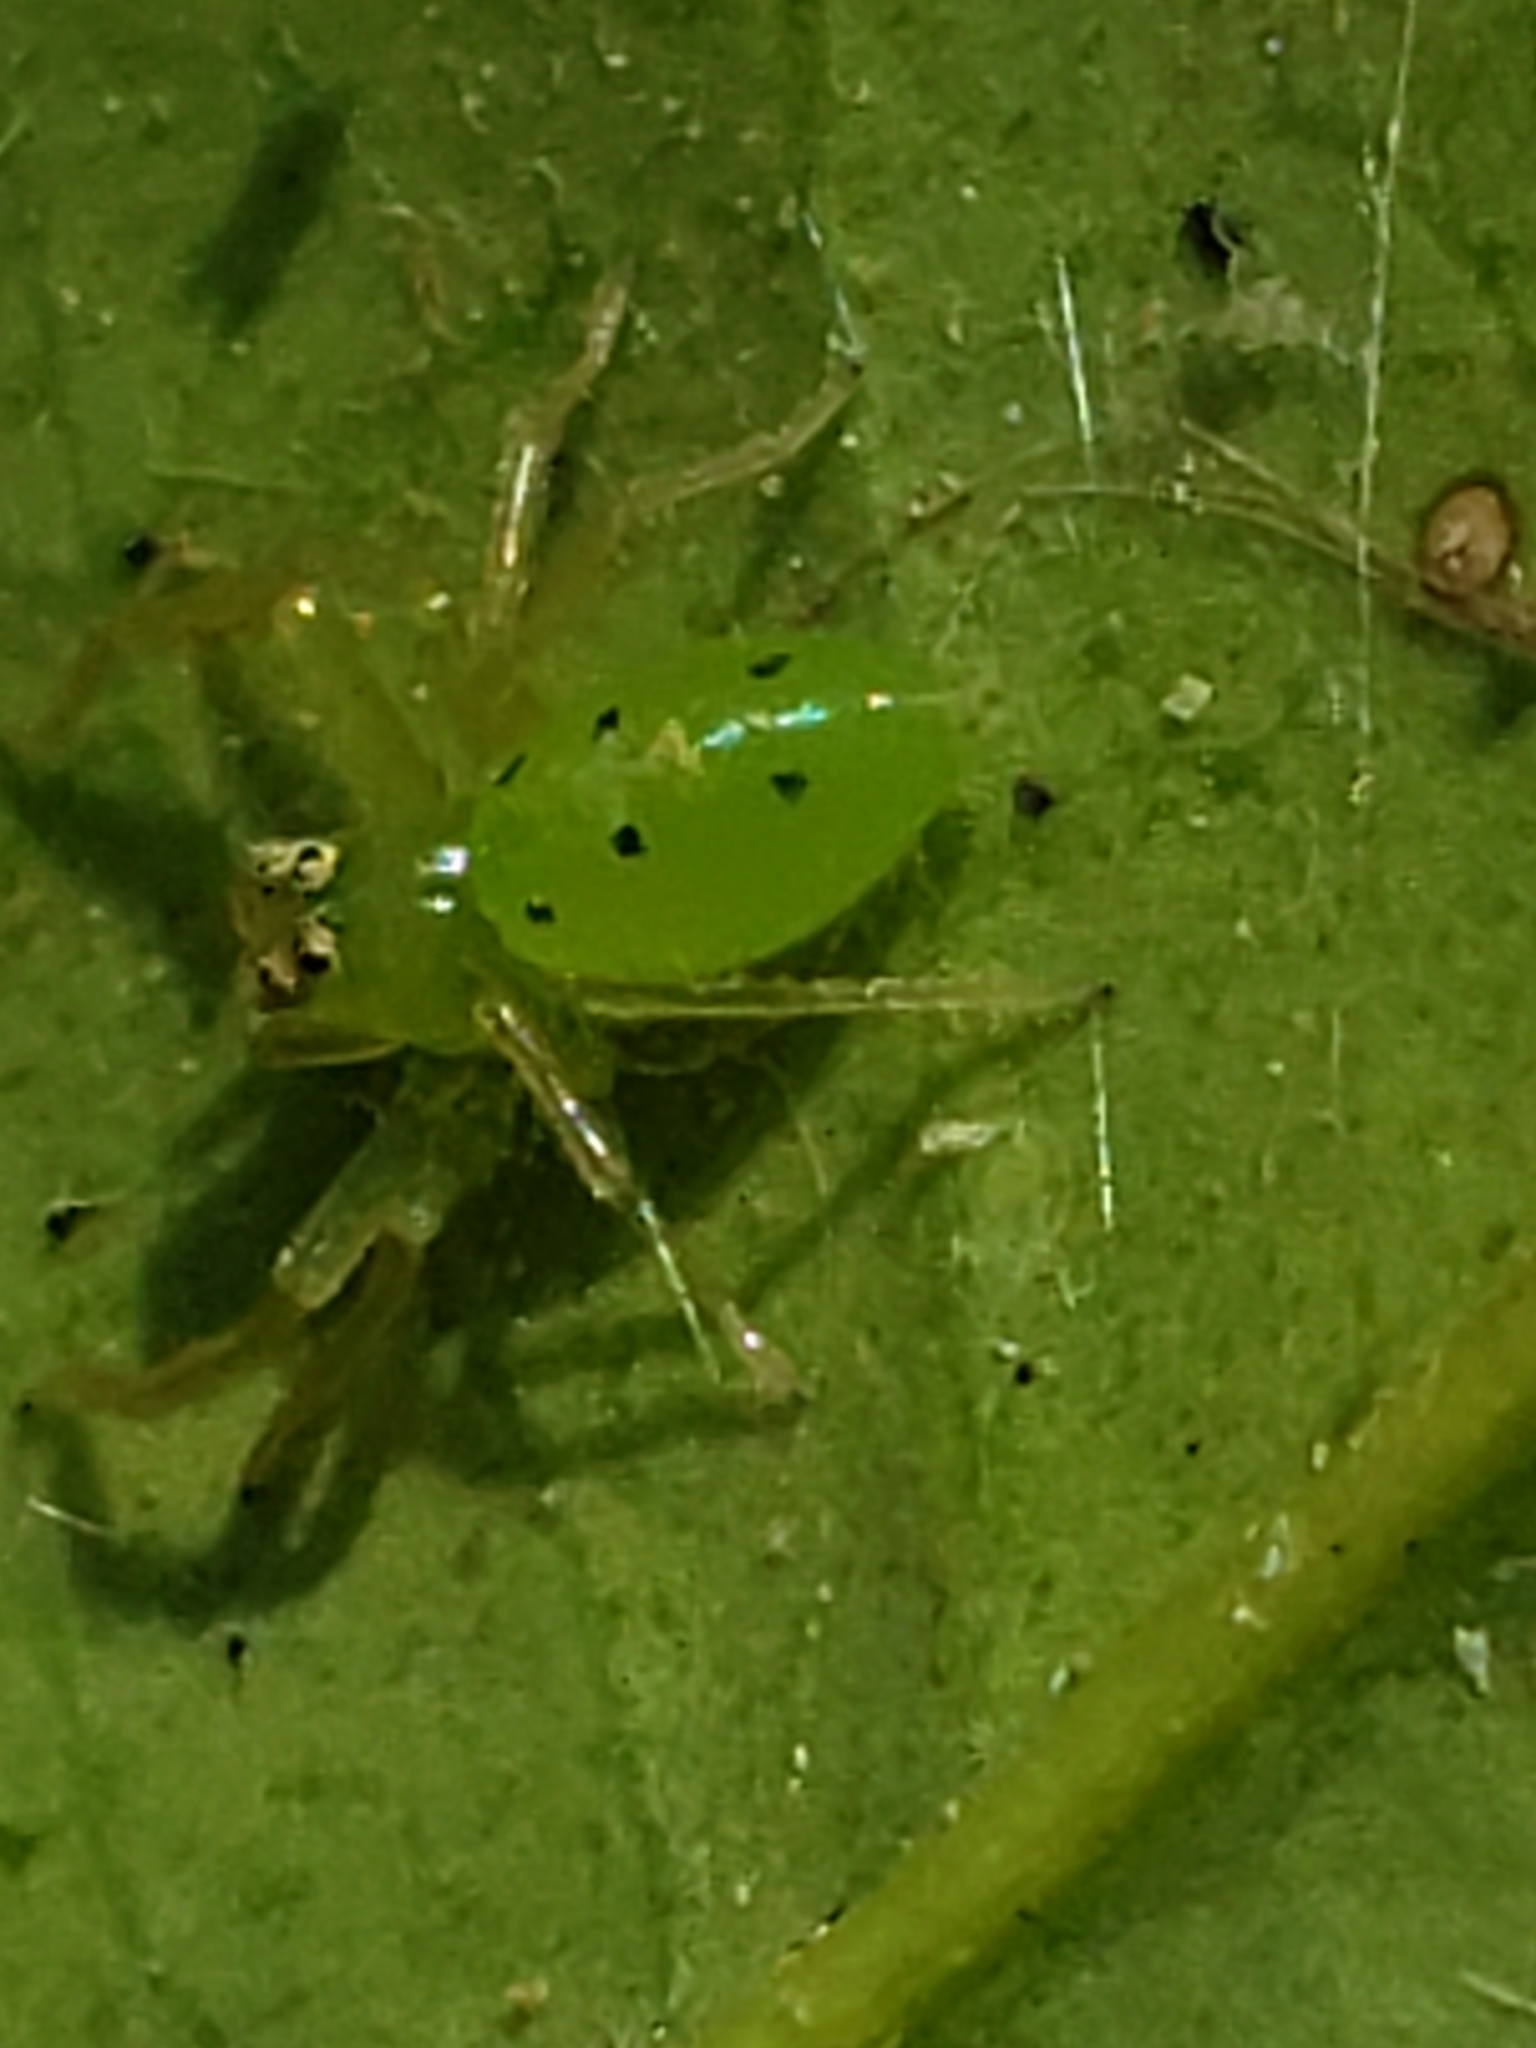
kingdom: Animalia
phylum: Arthropoda
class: Arachnida
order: Araneae
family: Salticidae
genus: Lyssomanes
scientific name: Lyssomanes viridis
